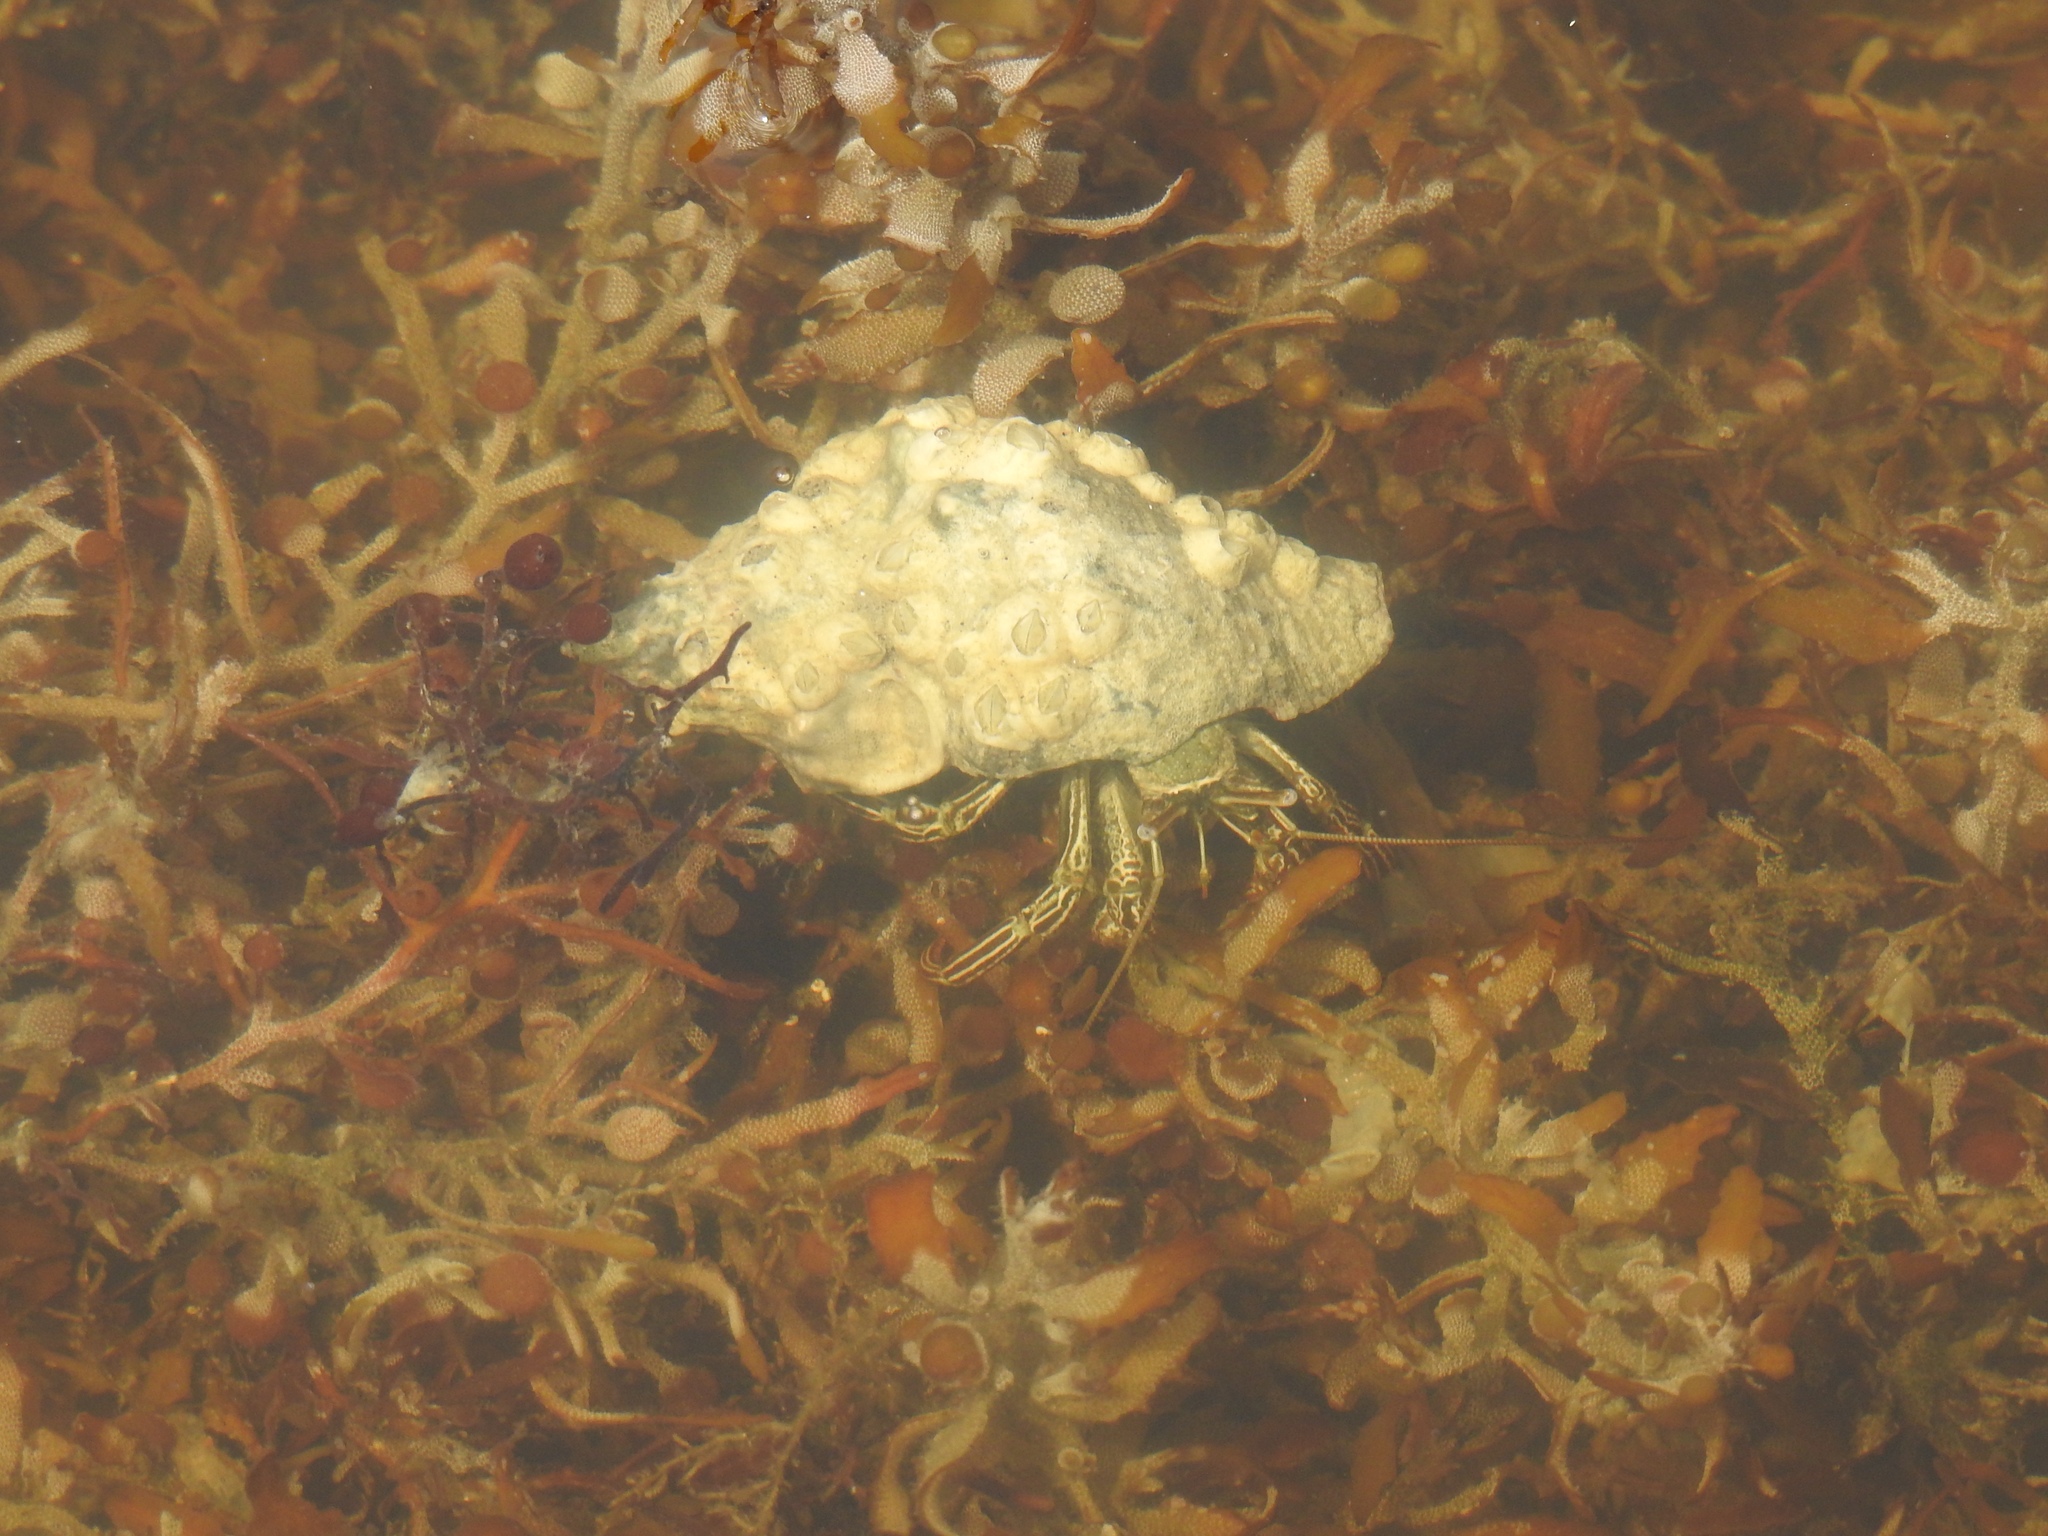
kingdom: Animalia
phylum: Arthropoda
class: Malacostraca
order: Decapoda
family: Diogenidae
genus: Clibanarius
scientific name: Clibanarius vittatus
